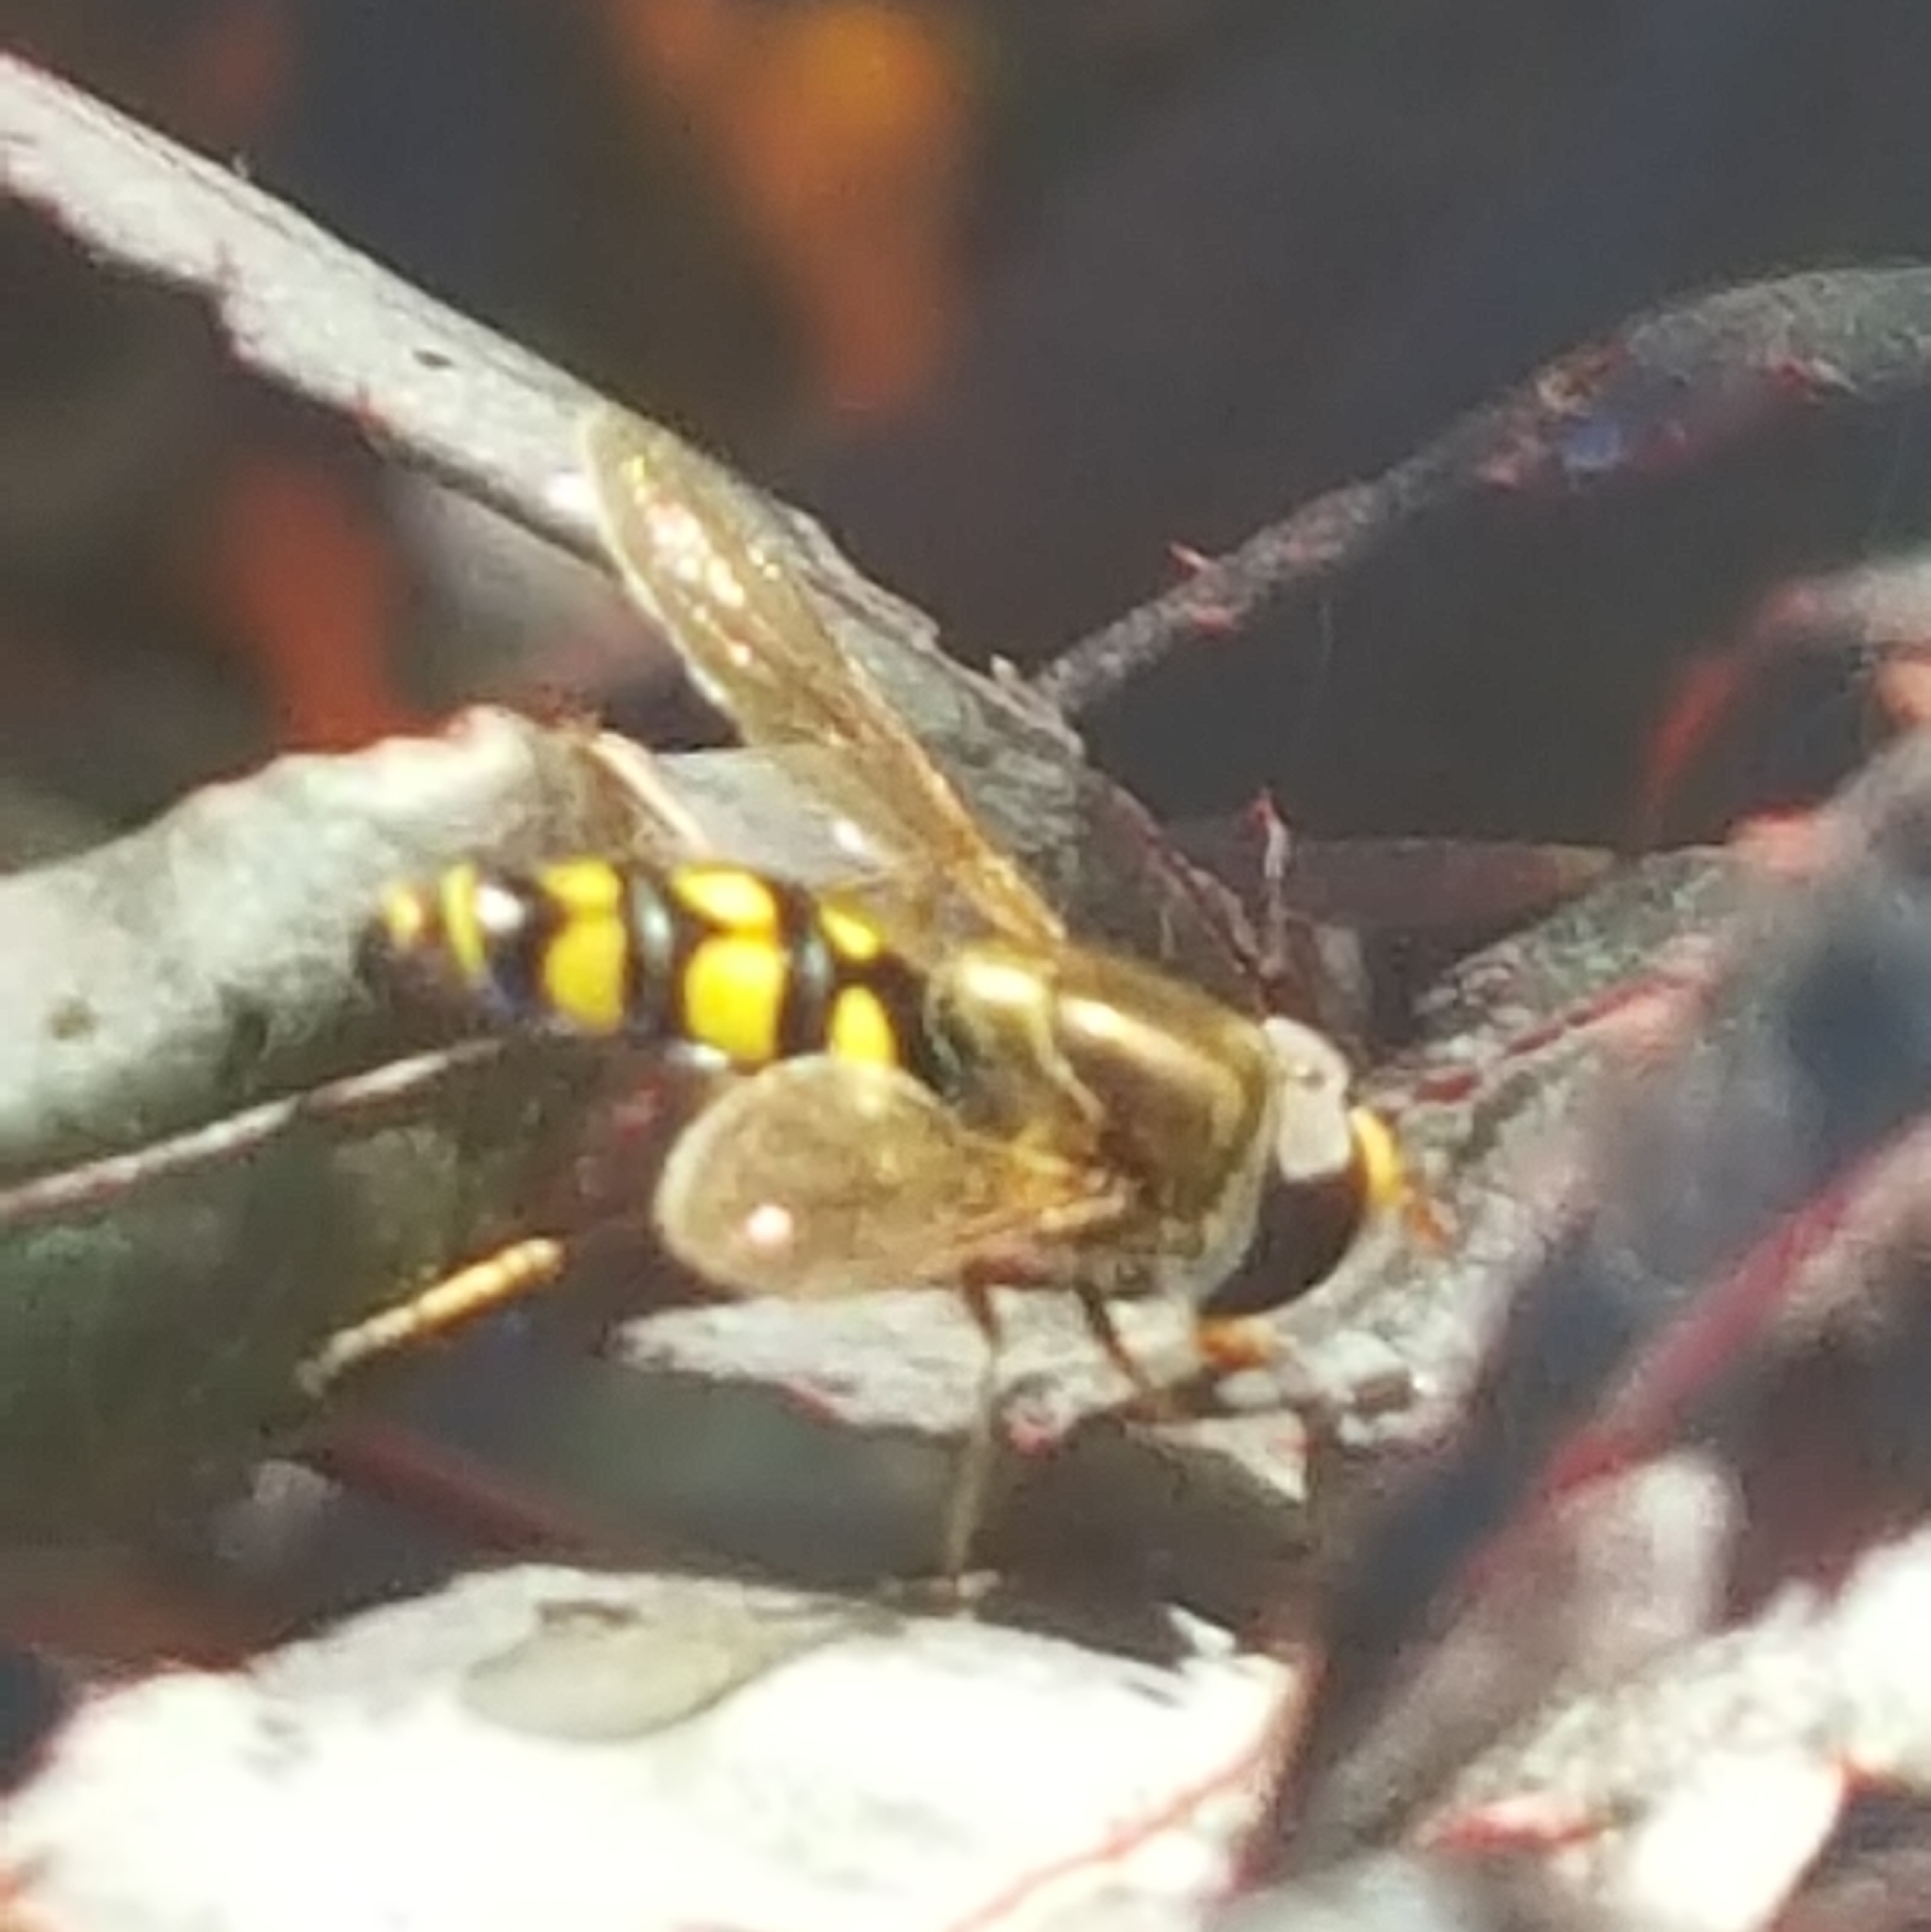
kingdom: Animalia
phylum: Arthropoda
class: Insecta
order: Diptera
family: Syrphidae
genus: Eupeodes
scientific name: Eupeodes fumipennis
